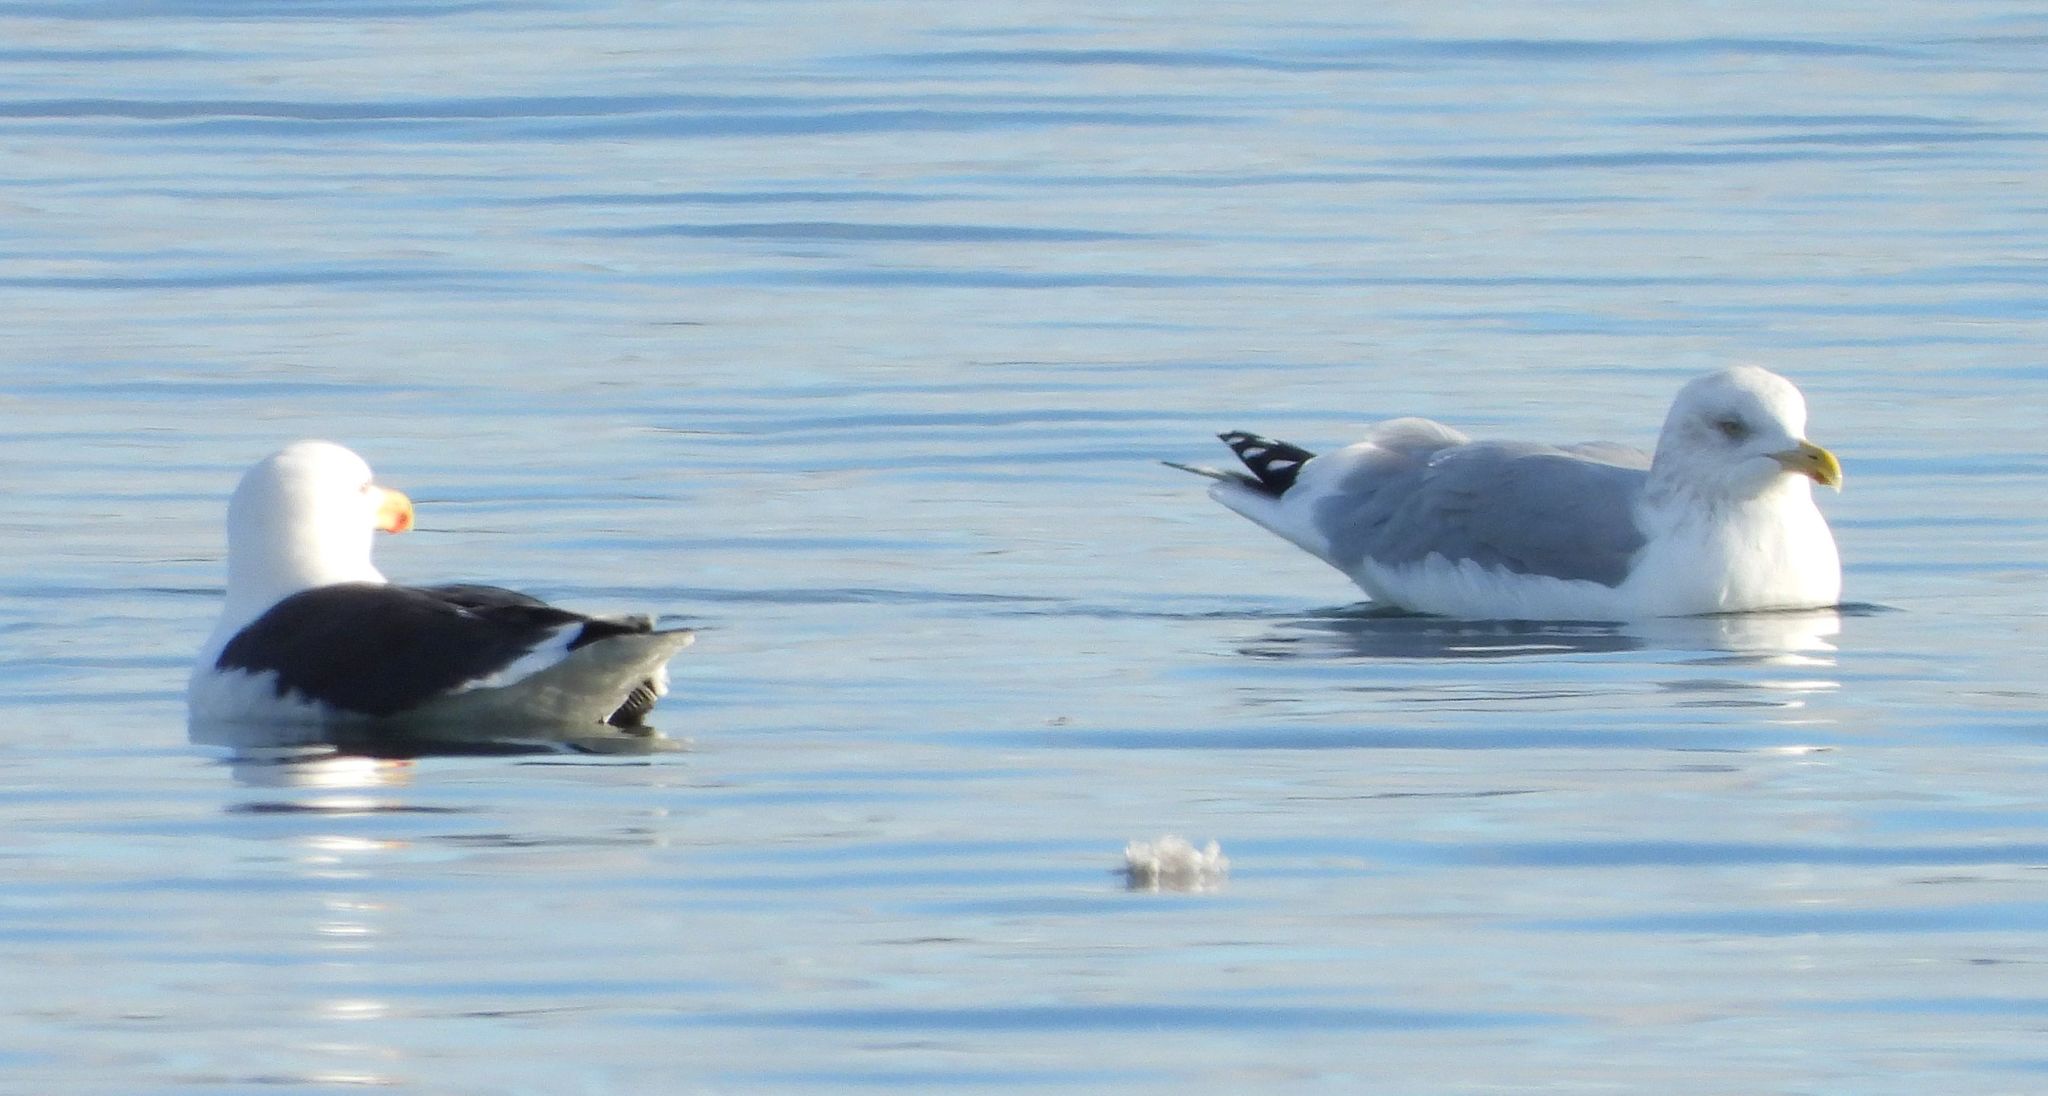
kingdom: Animalia
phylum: Chordata
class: Aves
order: Charadriiformes
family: Laridae
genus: Larus
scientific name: Larus marinus
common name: Great black-backed gull
